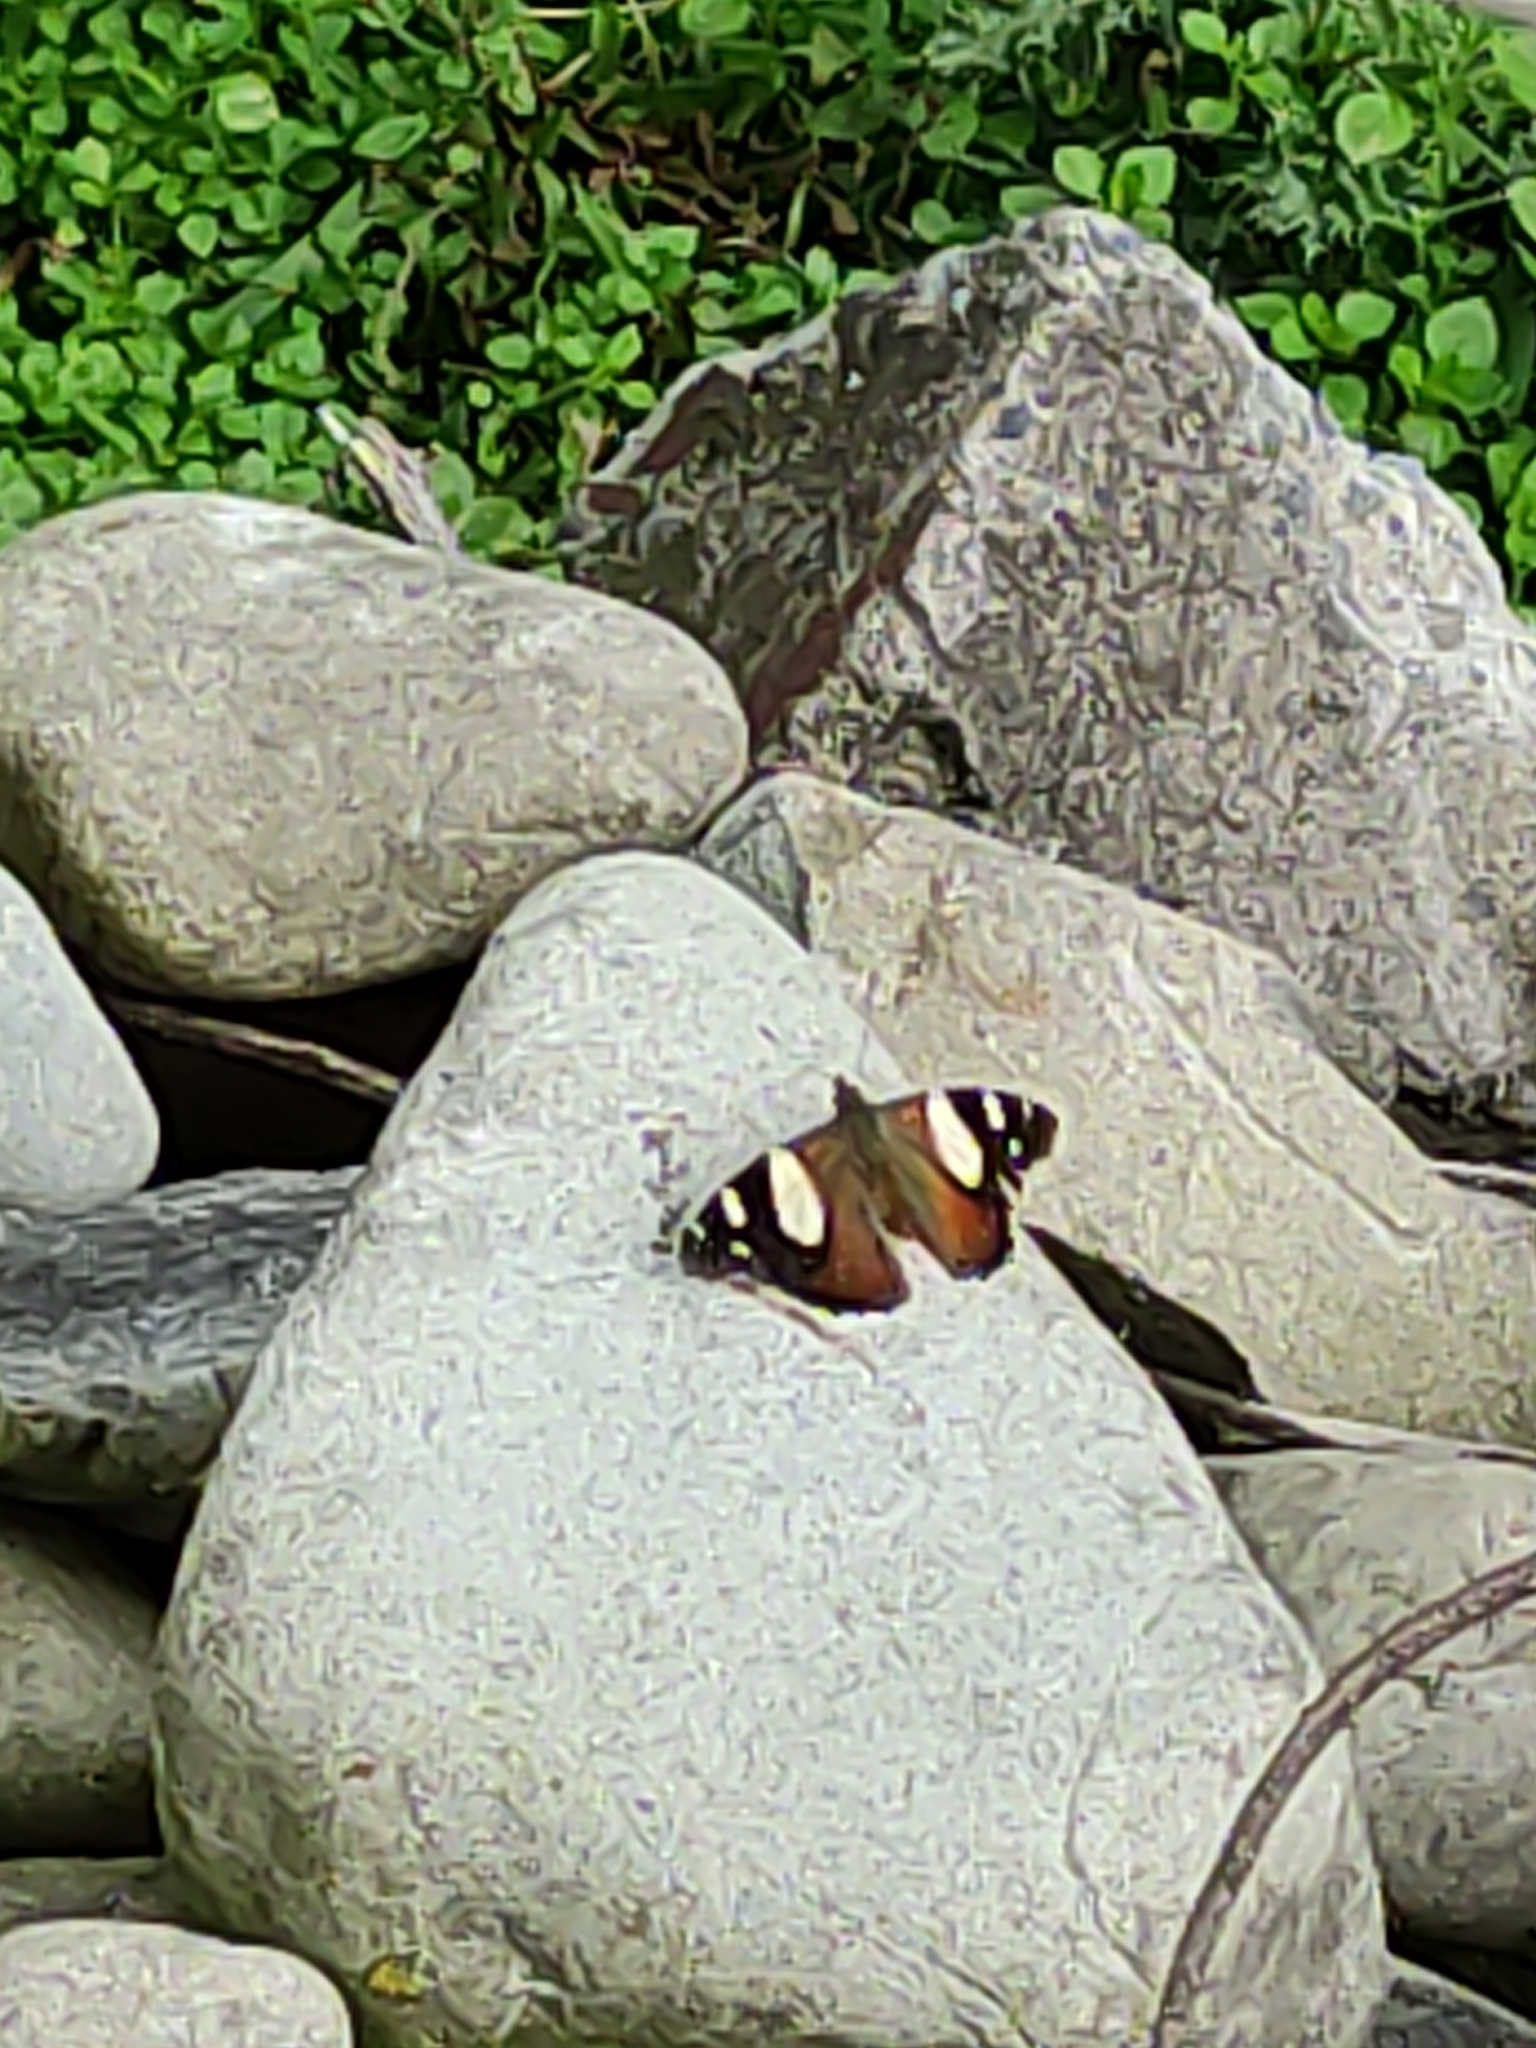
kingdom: Animalia
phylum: Arthropoda
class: Insecta
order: Lepidoptera
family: Nymphalidae
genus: Vanessa
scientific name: Vanessa itea
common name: Yellow admiral
